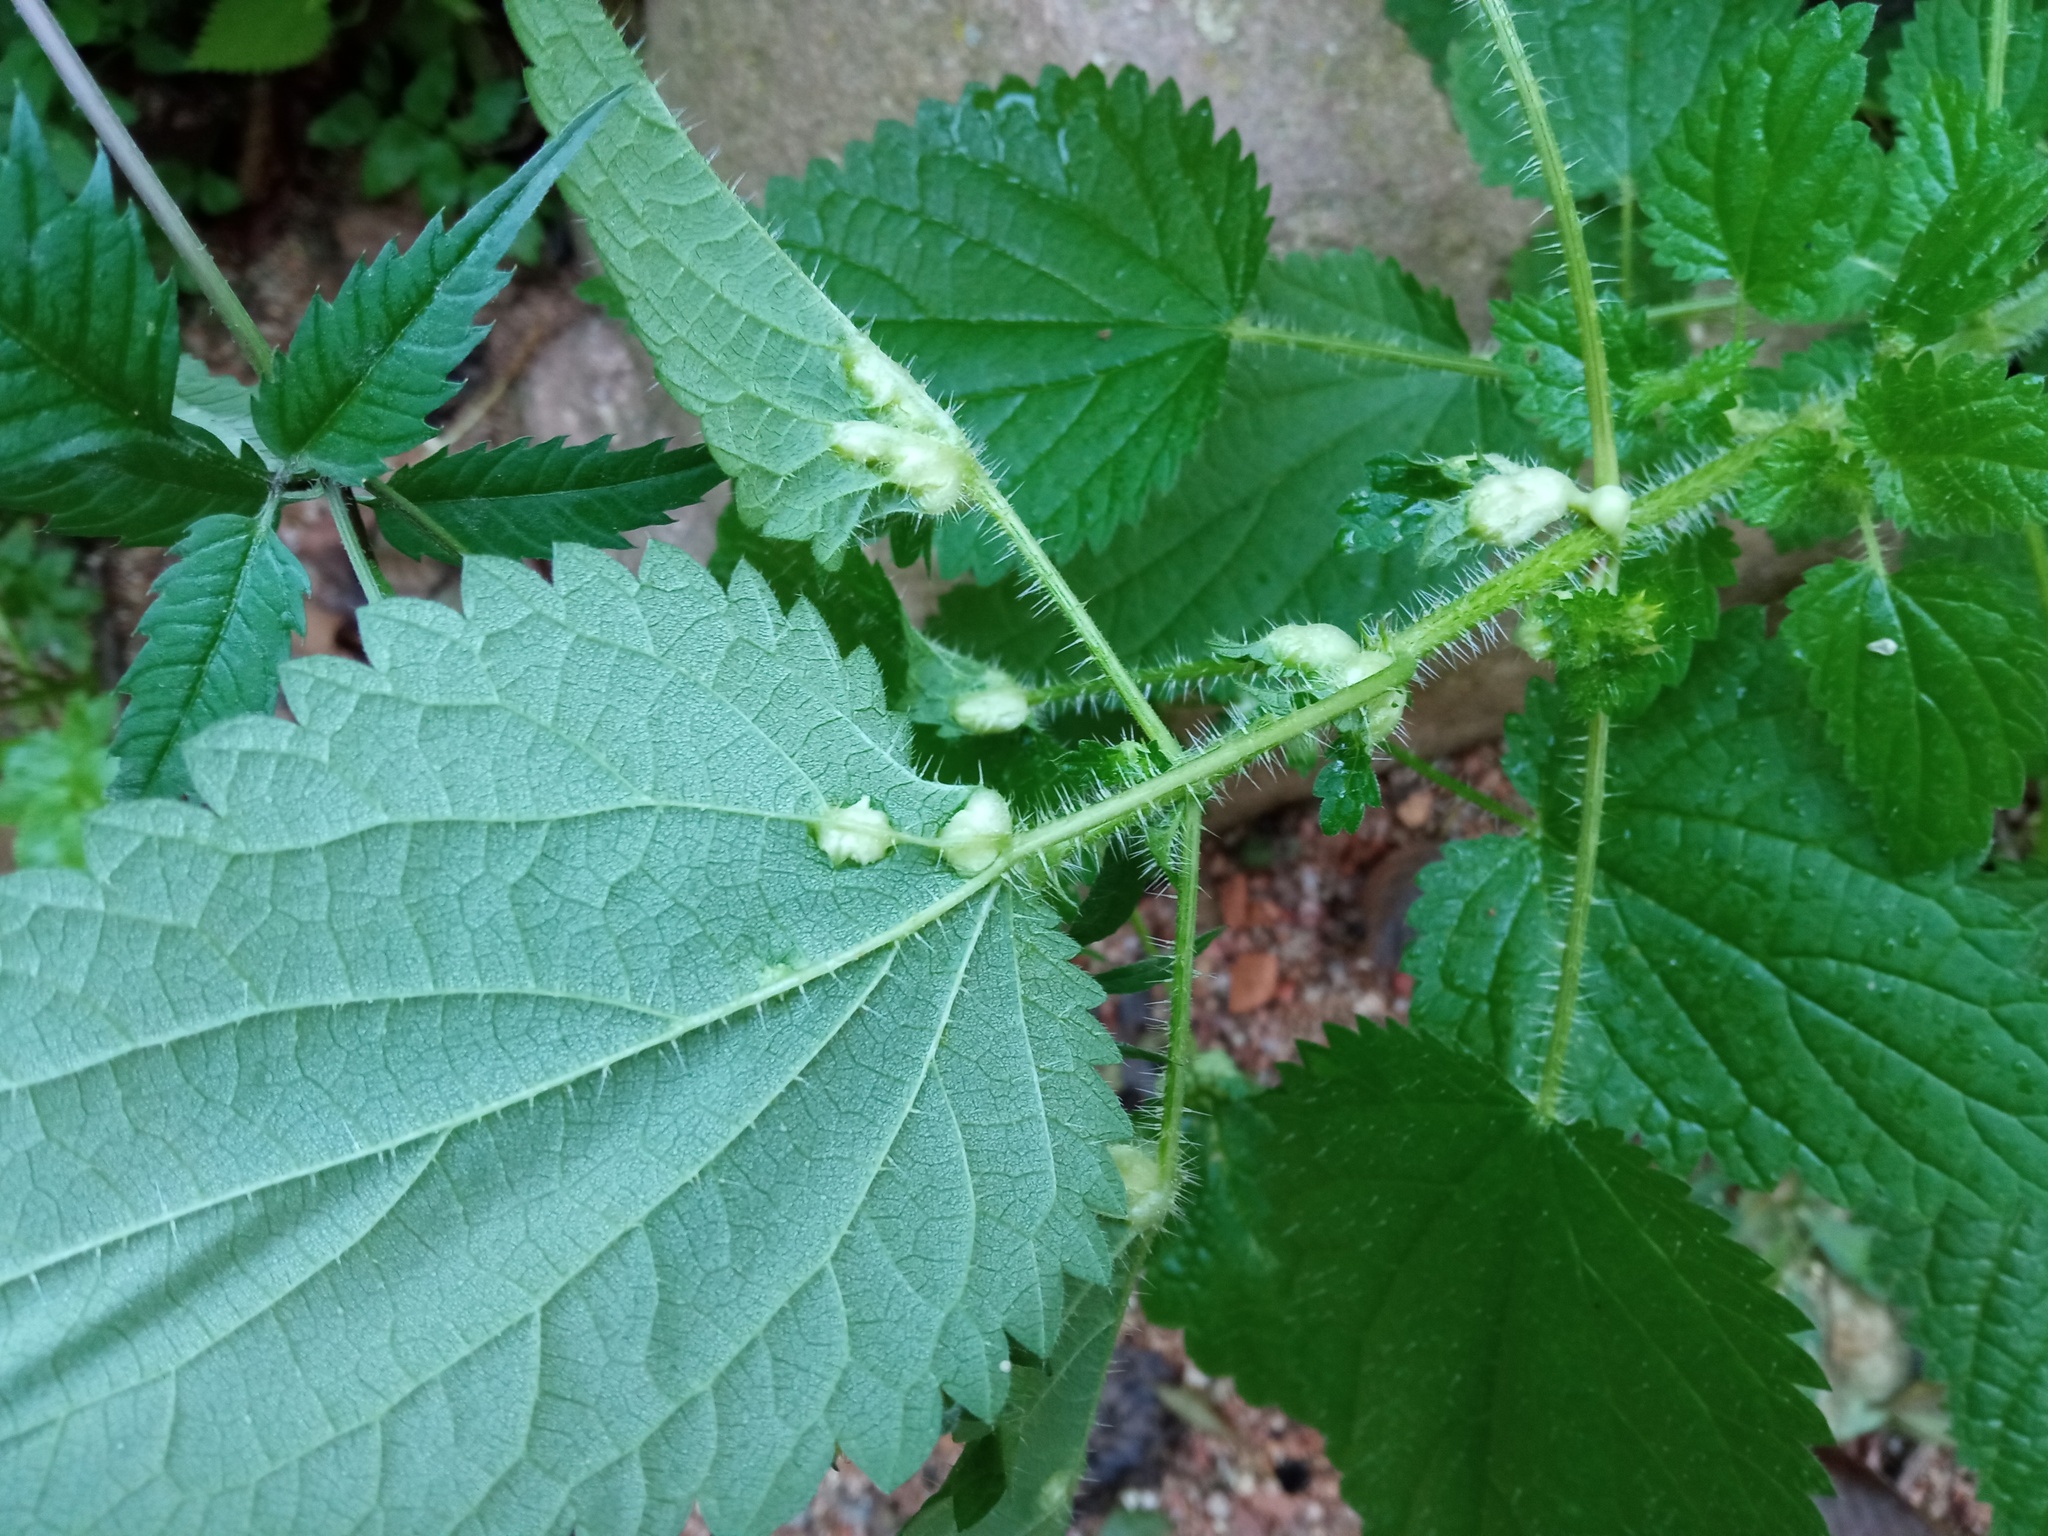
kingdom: Animalia
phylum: Arthropoda
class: Insecta
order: Diptera
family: Cecidomyiidae
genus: Dasineura
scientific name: Dasineura urticae
